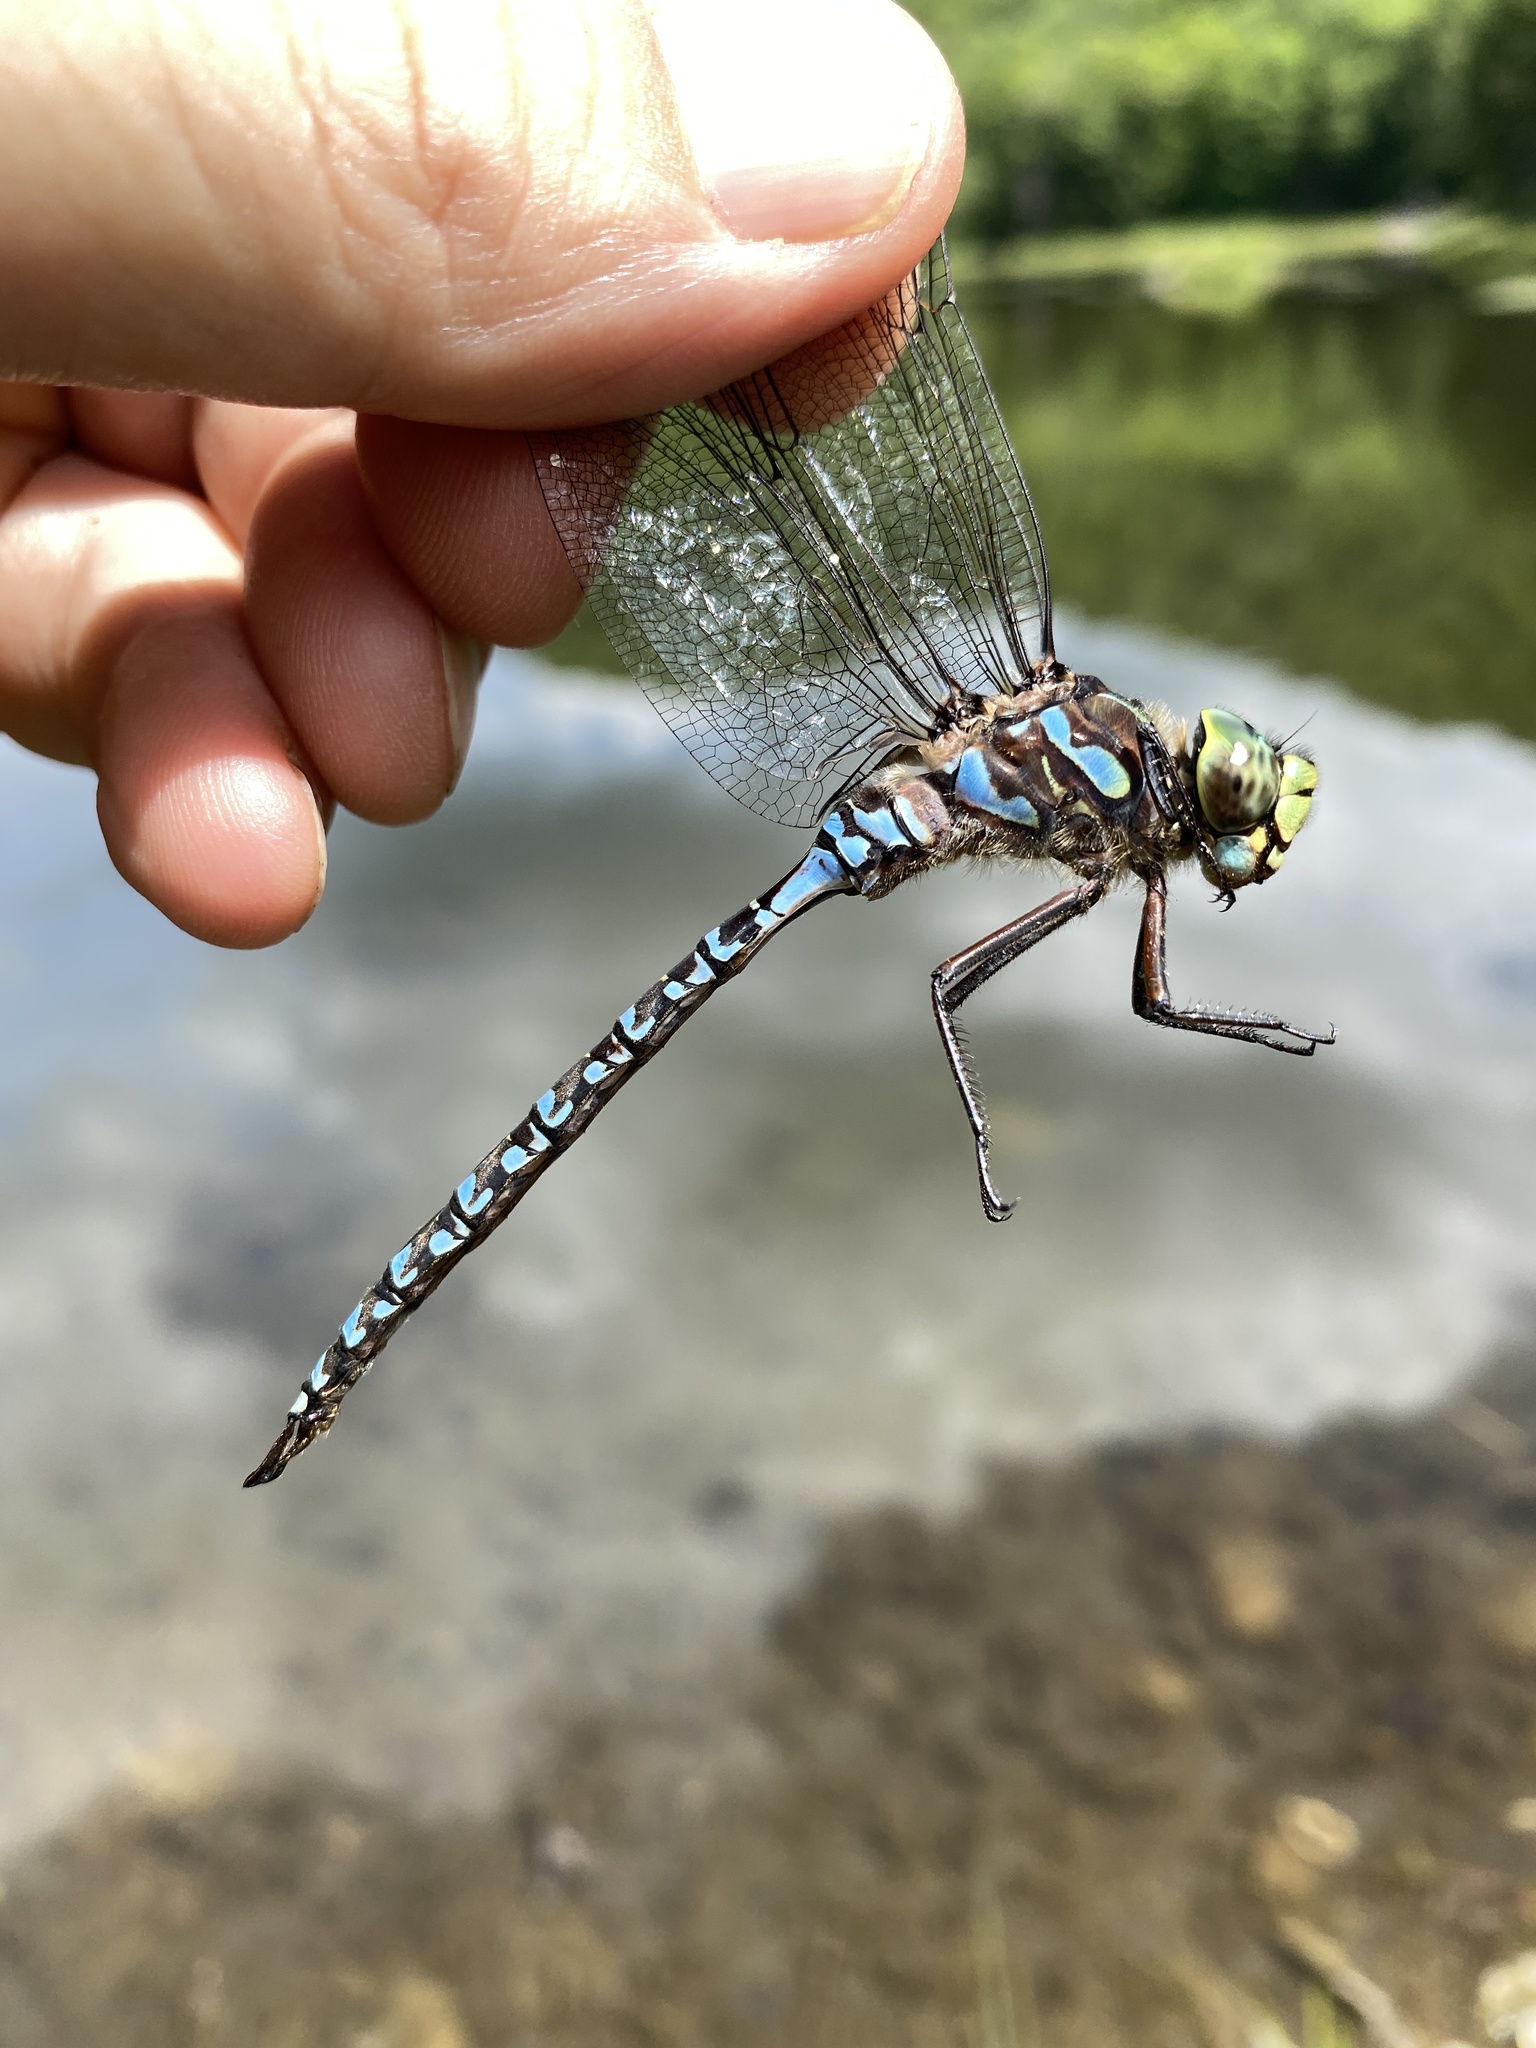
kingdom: Animalia
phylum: Arthropoda
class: Insecta
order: Odonata
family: Aeshnidae
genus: Aeshna
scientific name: Aeshna eremita
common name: Lake darner
